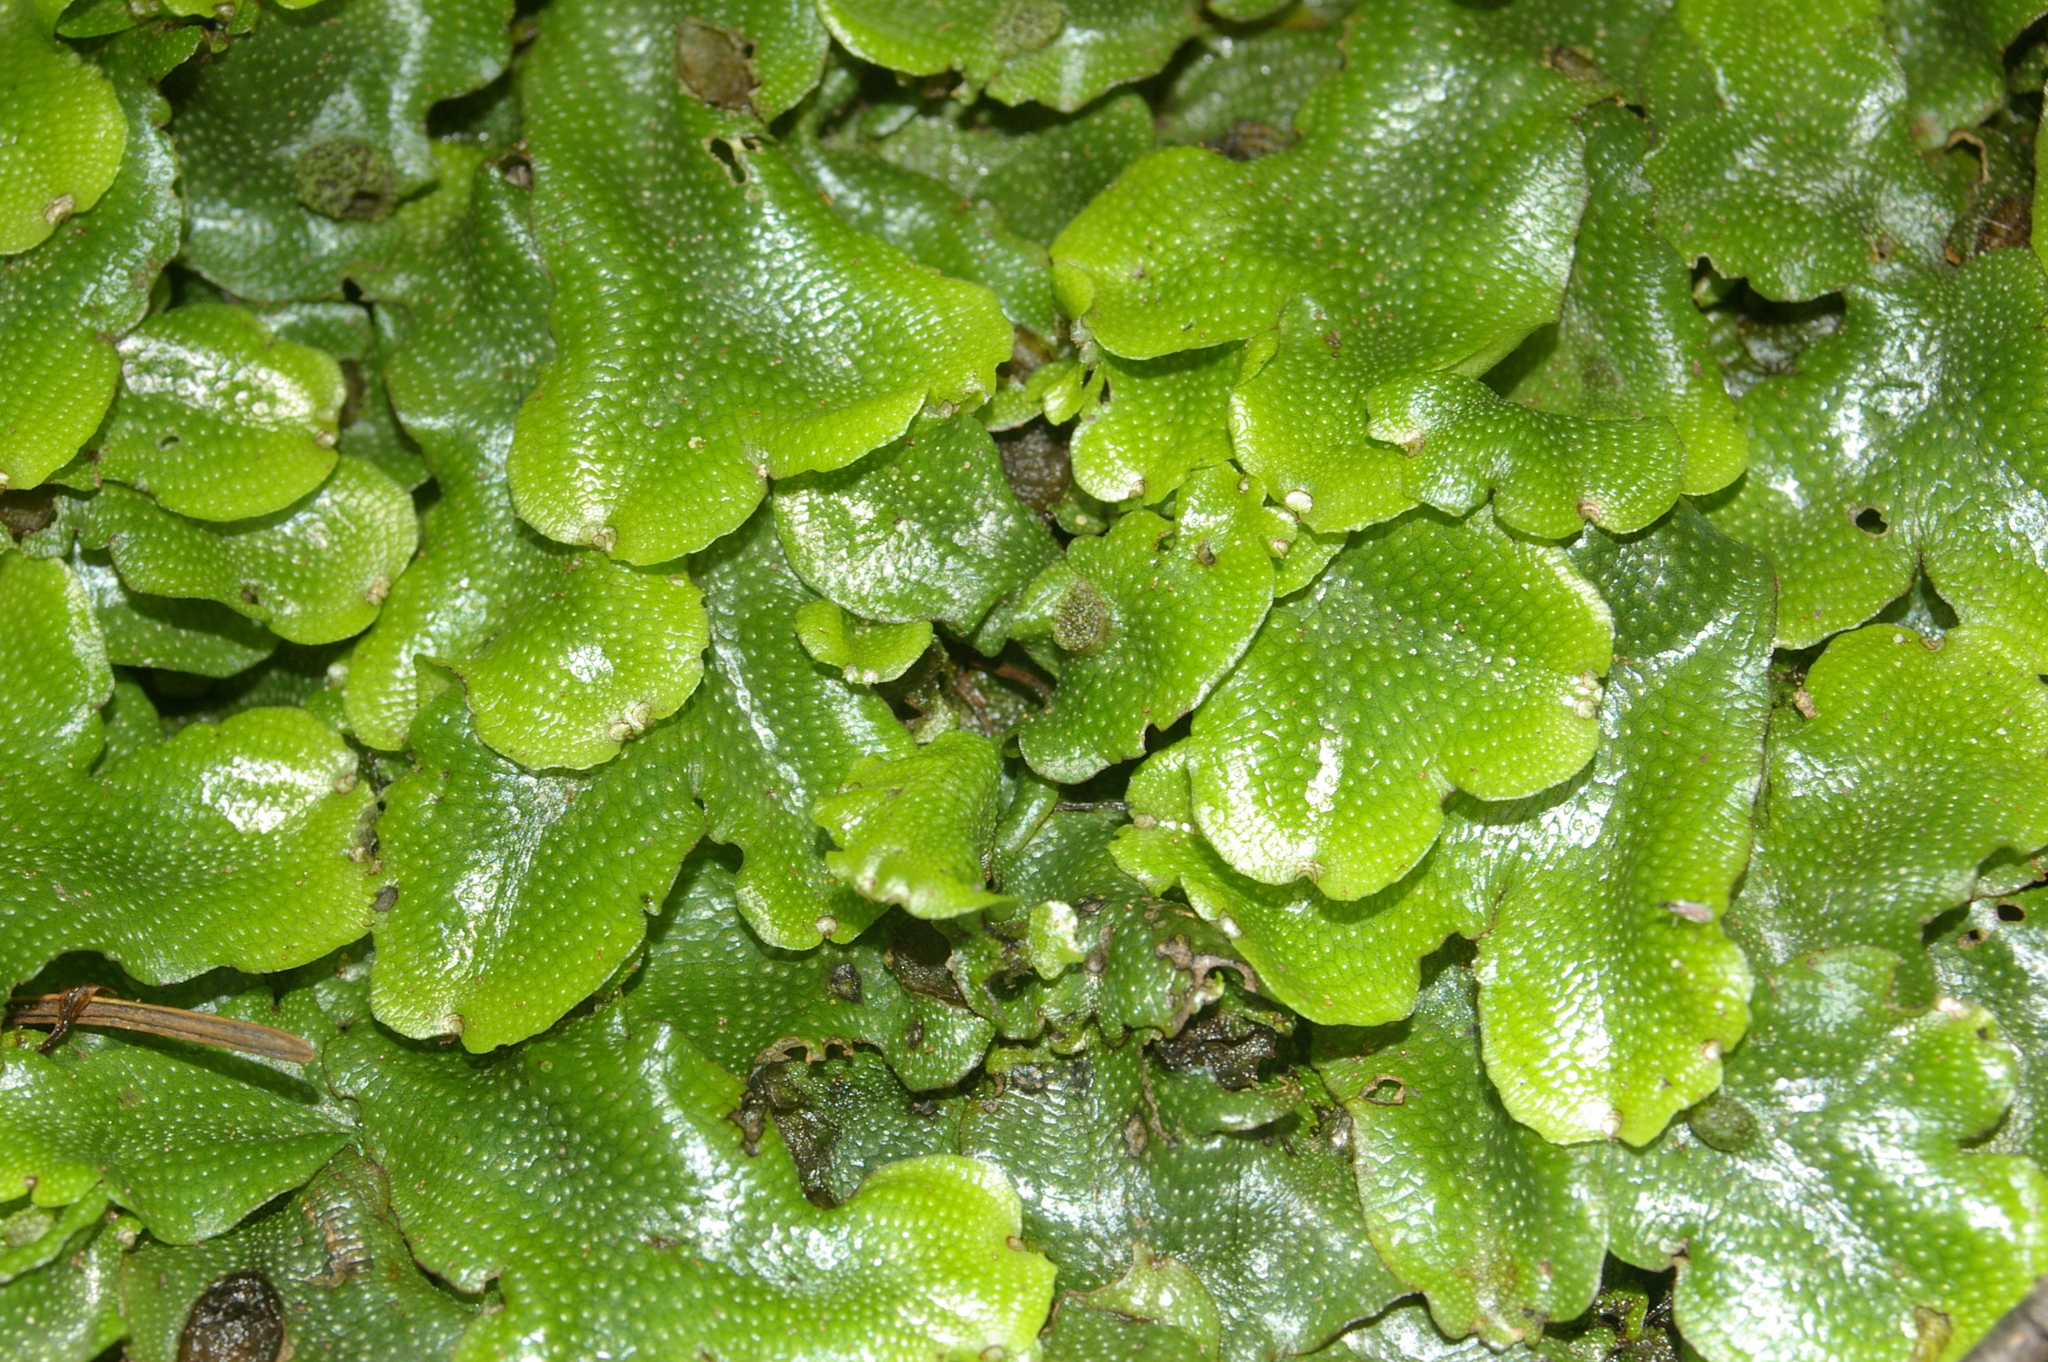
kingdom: Plantae
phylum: Marchantiophyta
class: Marchantiopsida
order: Marchantiales
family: Conocephalaceae
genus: Conocephalum
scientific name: Conocephalum conicum
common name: Great scented liverwort
